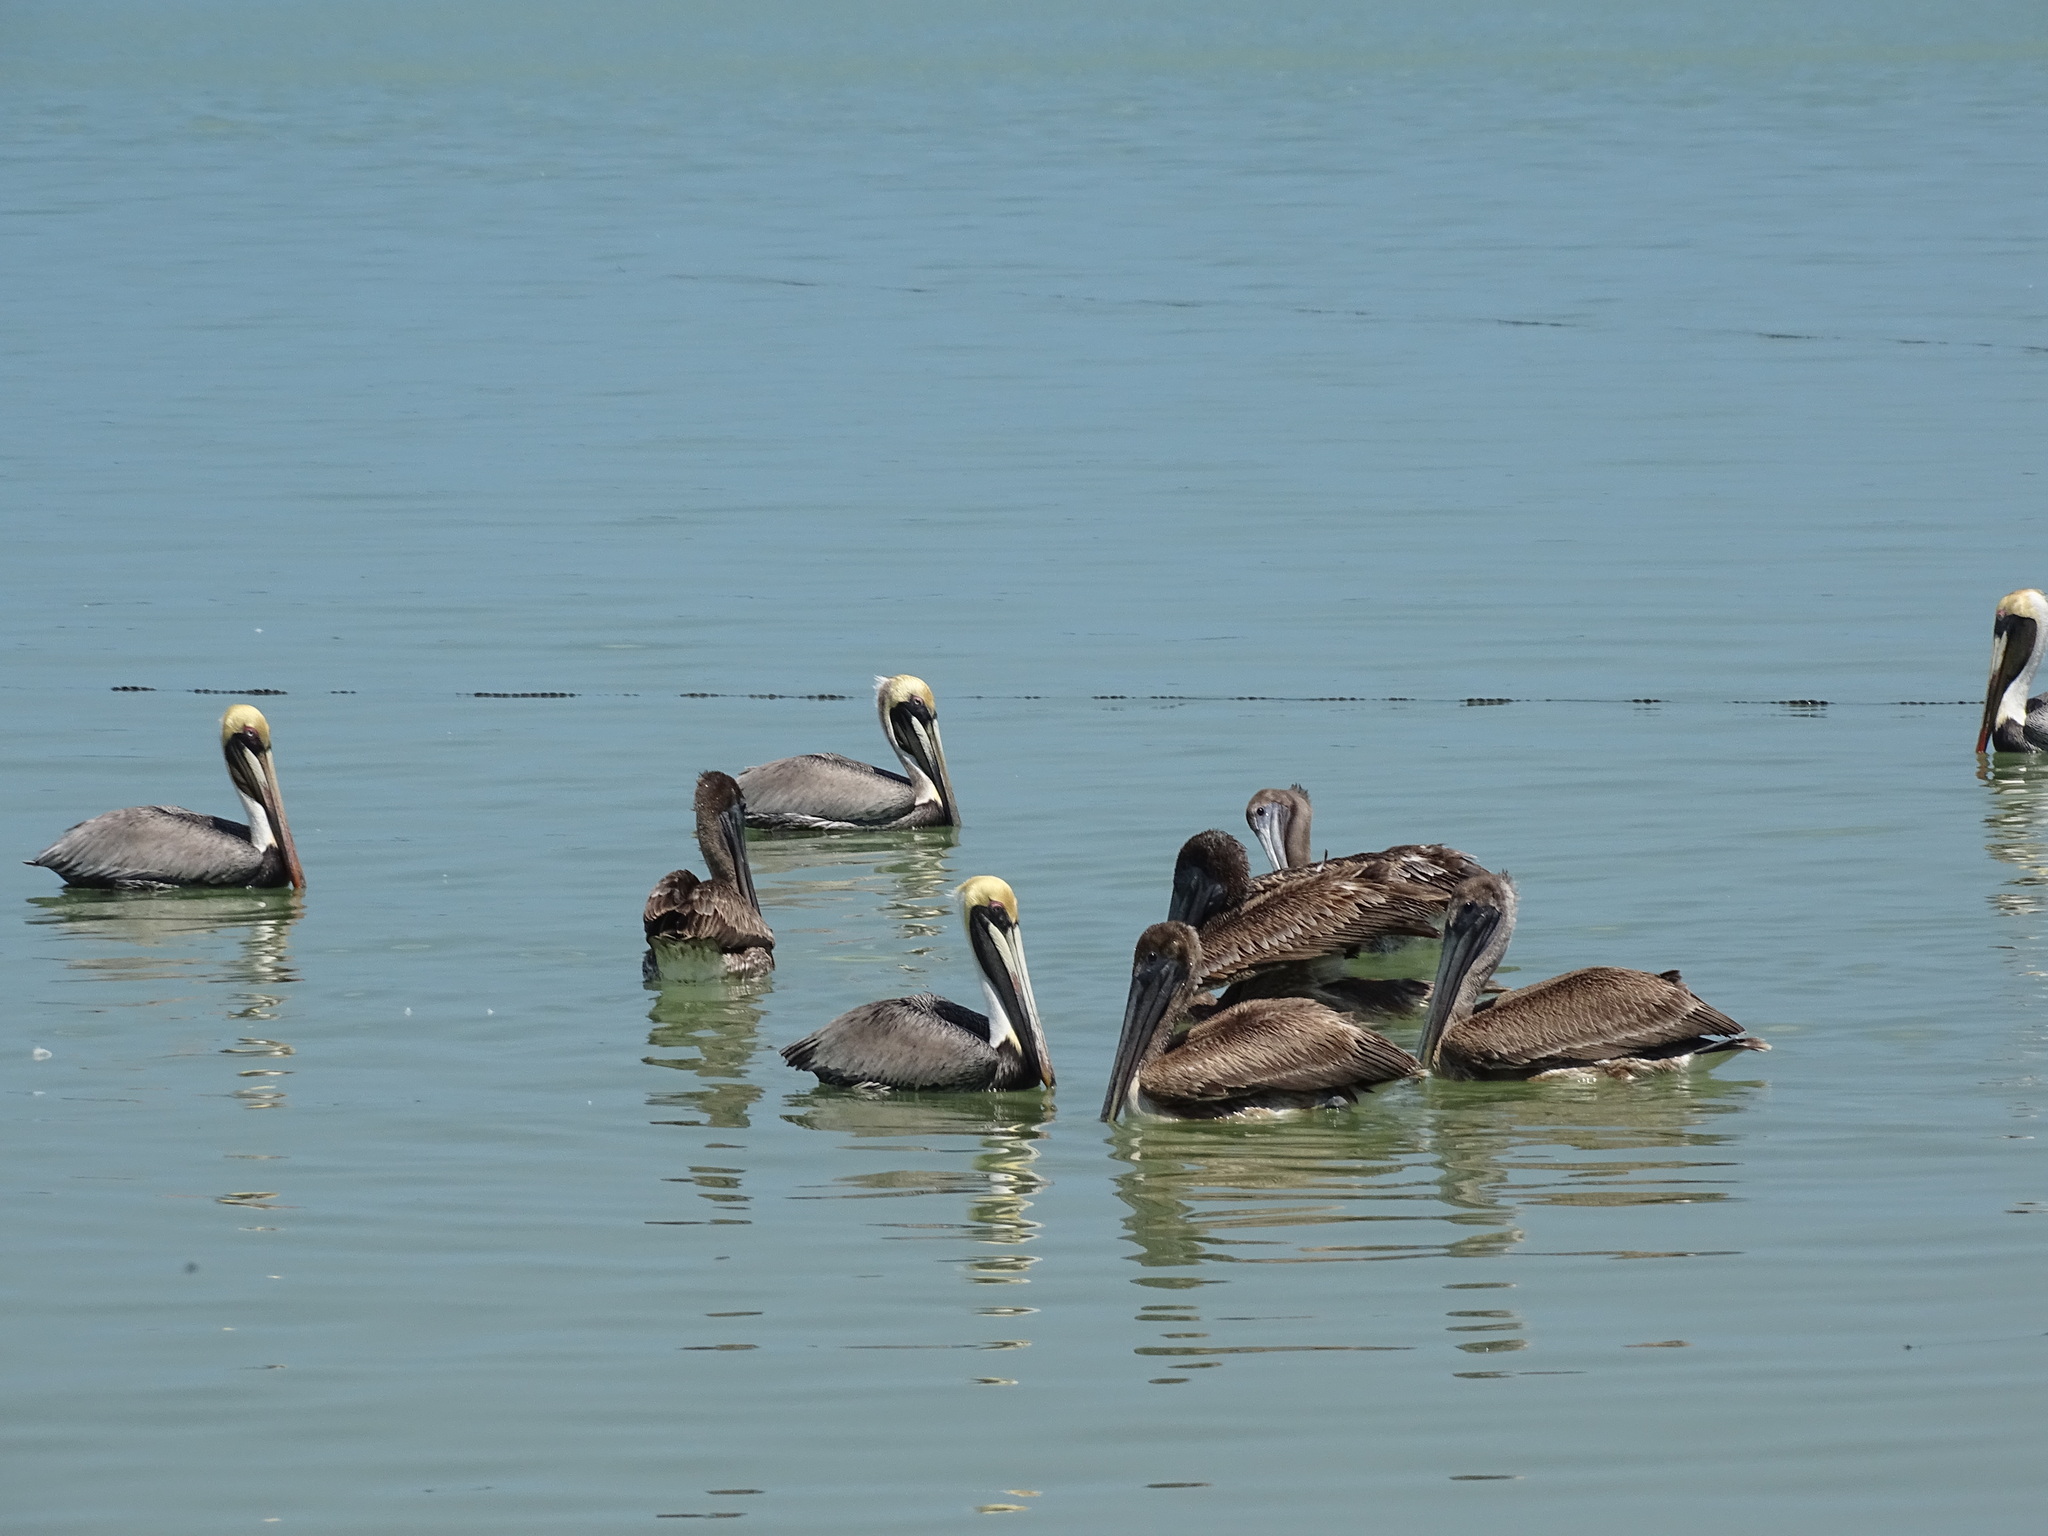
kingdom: Animalia
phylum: Chordata
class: Aves
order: Pelecaniformes
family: Pelecanidae
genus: Pelecanus
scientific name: Pelecanus occidentalis
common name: Brown pelican
